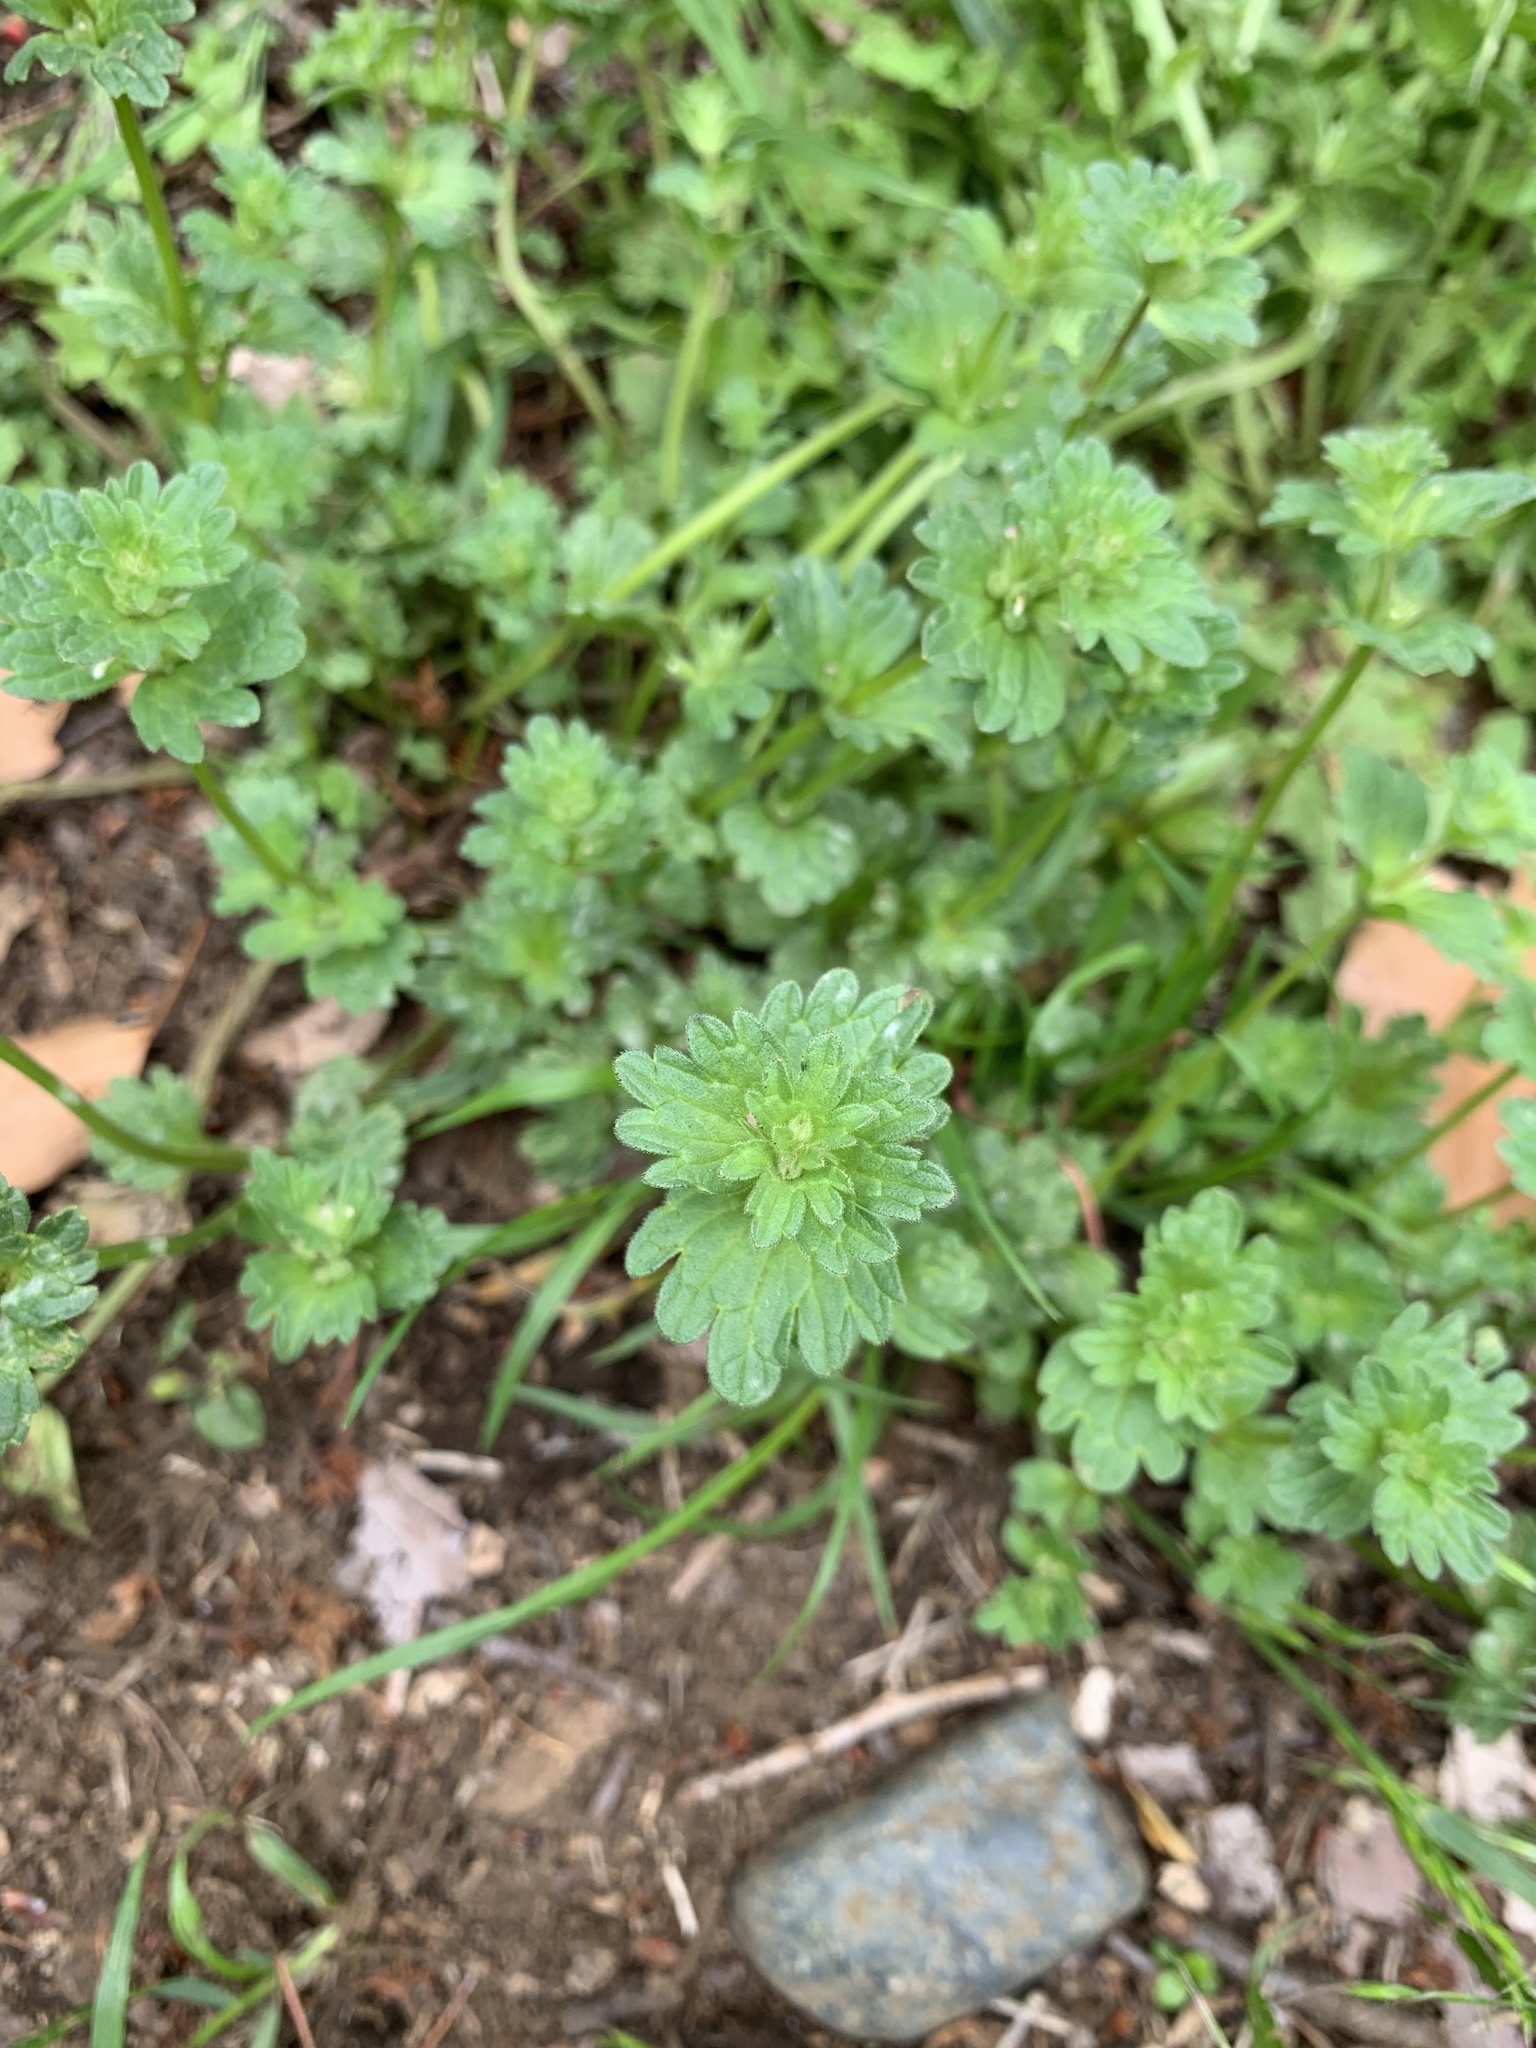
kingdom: Plantae
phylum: Tracheophyta
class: Magnoliopsida
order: Lamiales
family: Lamiaceae
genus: Lamium
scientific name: Lamium amplexicaule
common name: Henbit dead-nettle
